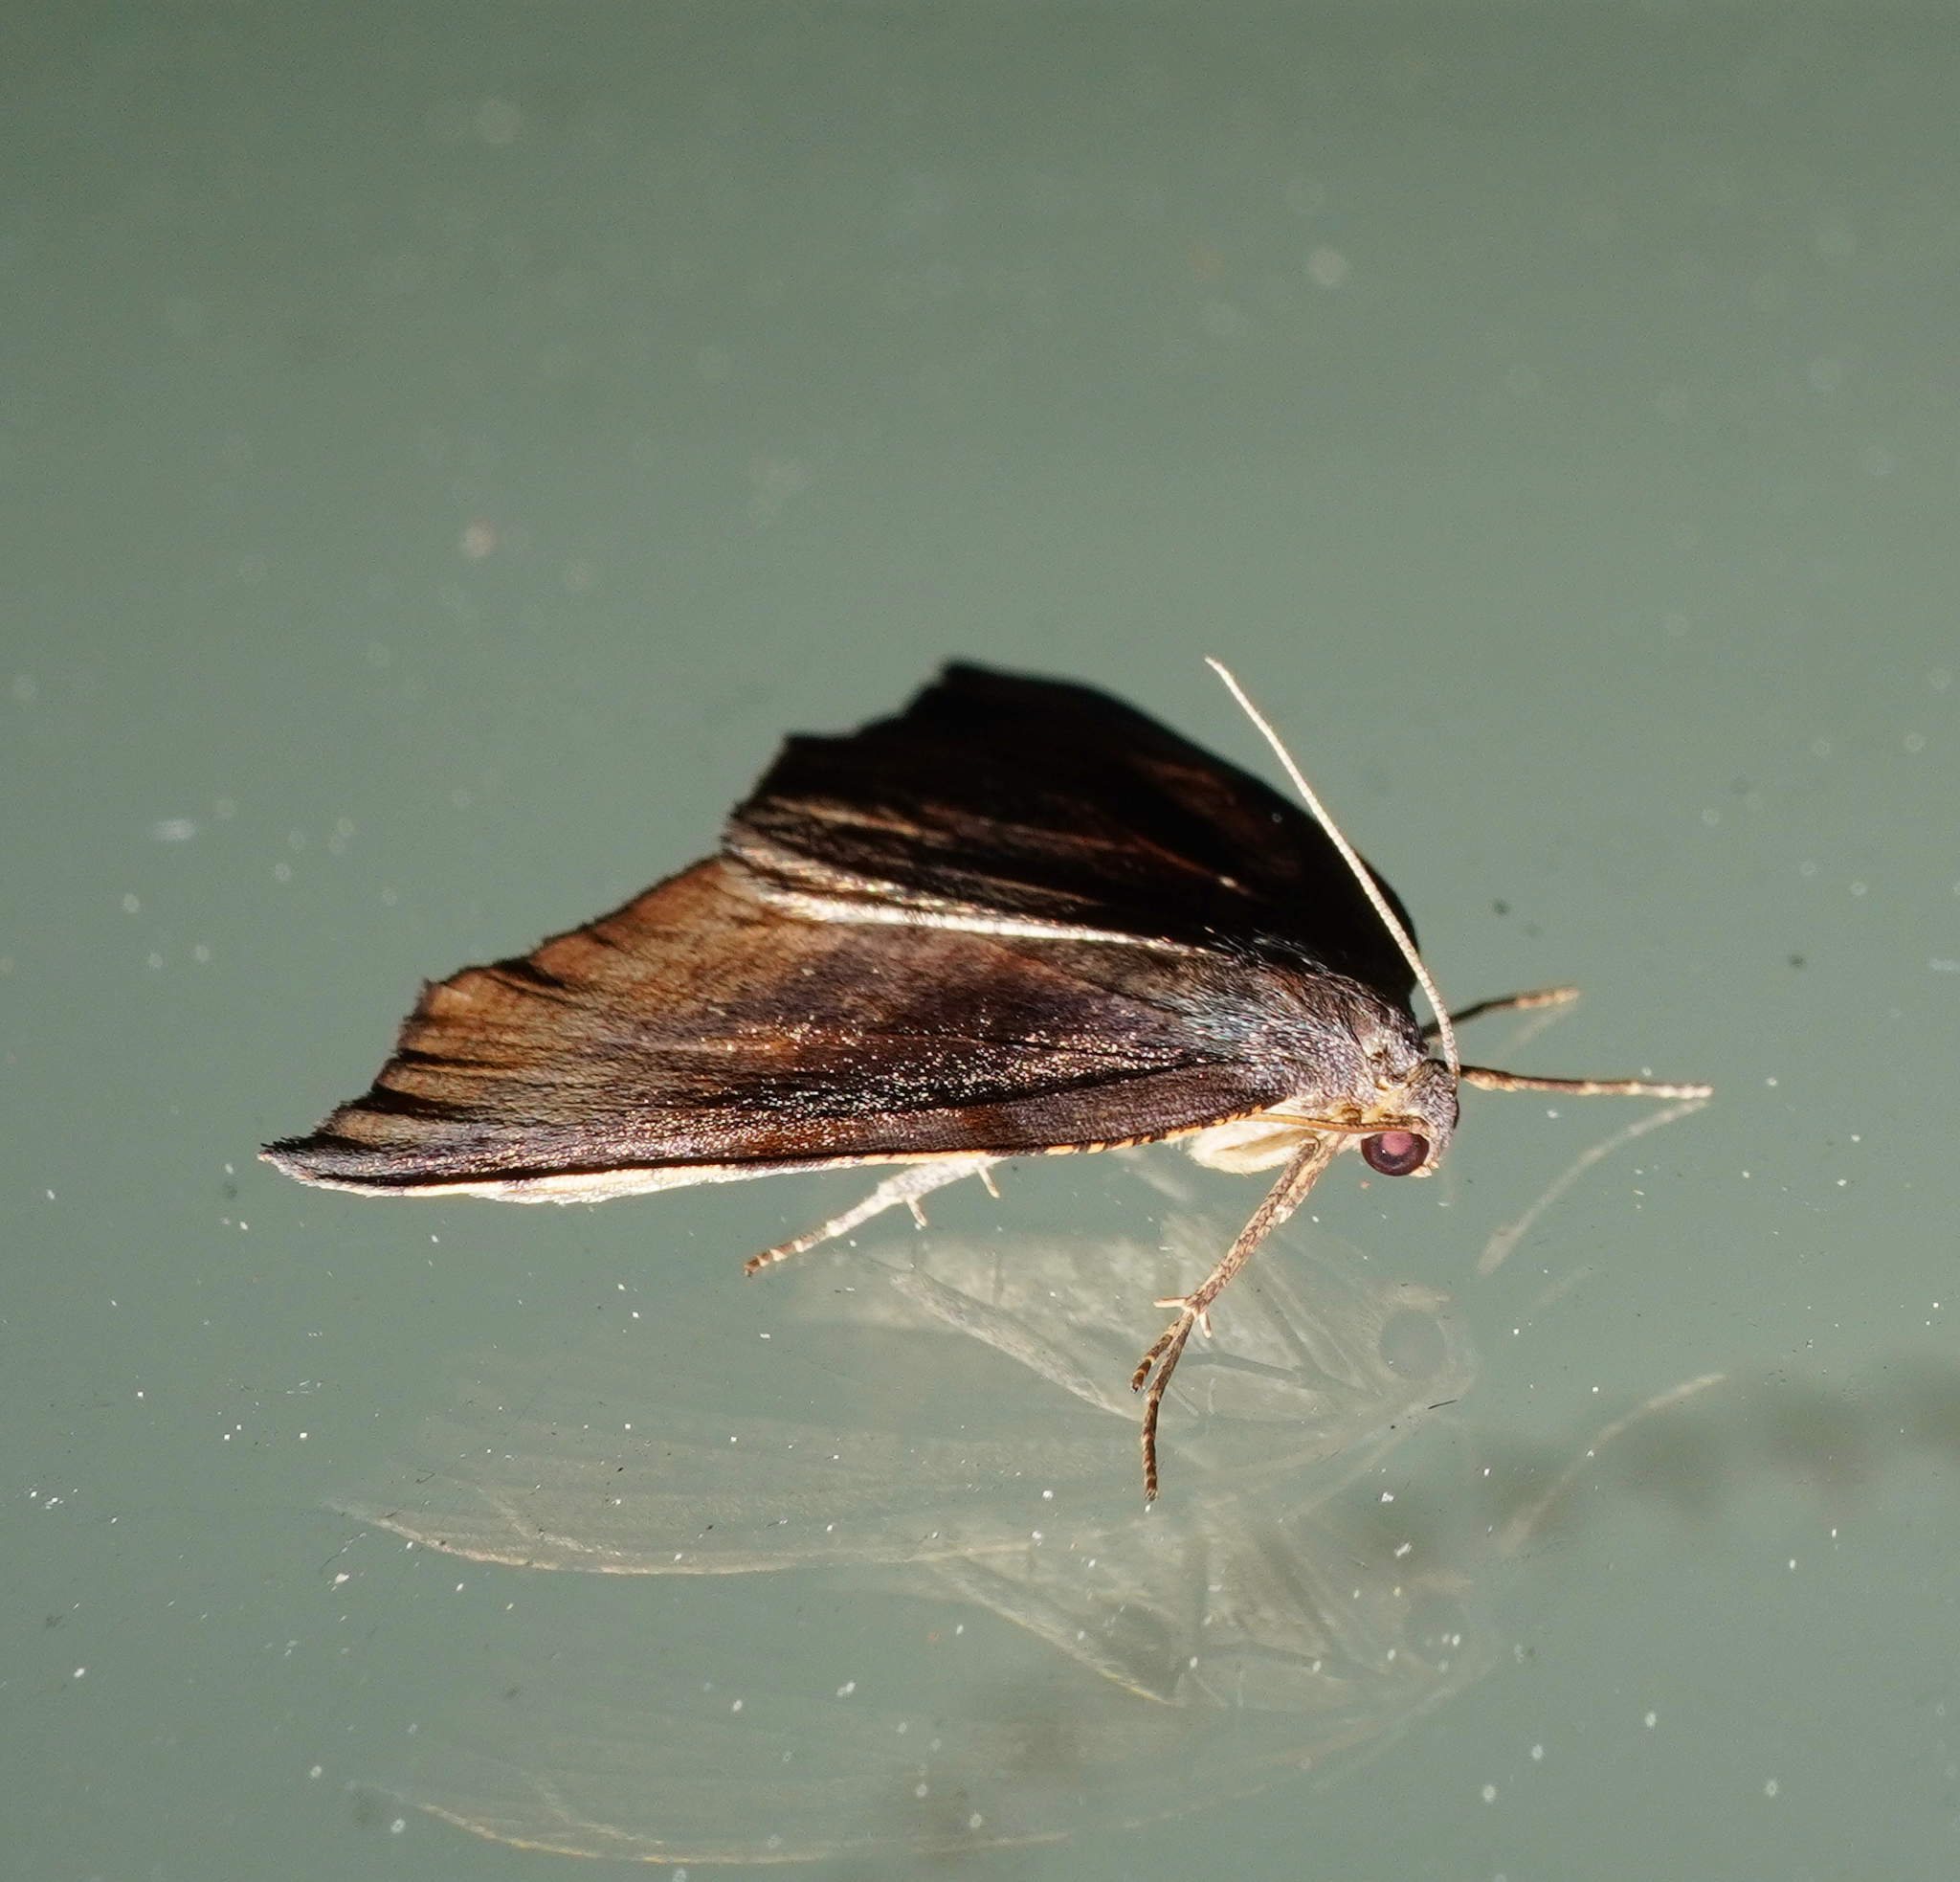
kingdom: Animalia
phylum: Arthropoda
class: Insecta
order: Lepidoptera
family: Geometridae
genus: Sestra
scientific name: Sestra flexata
